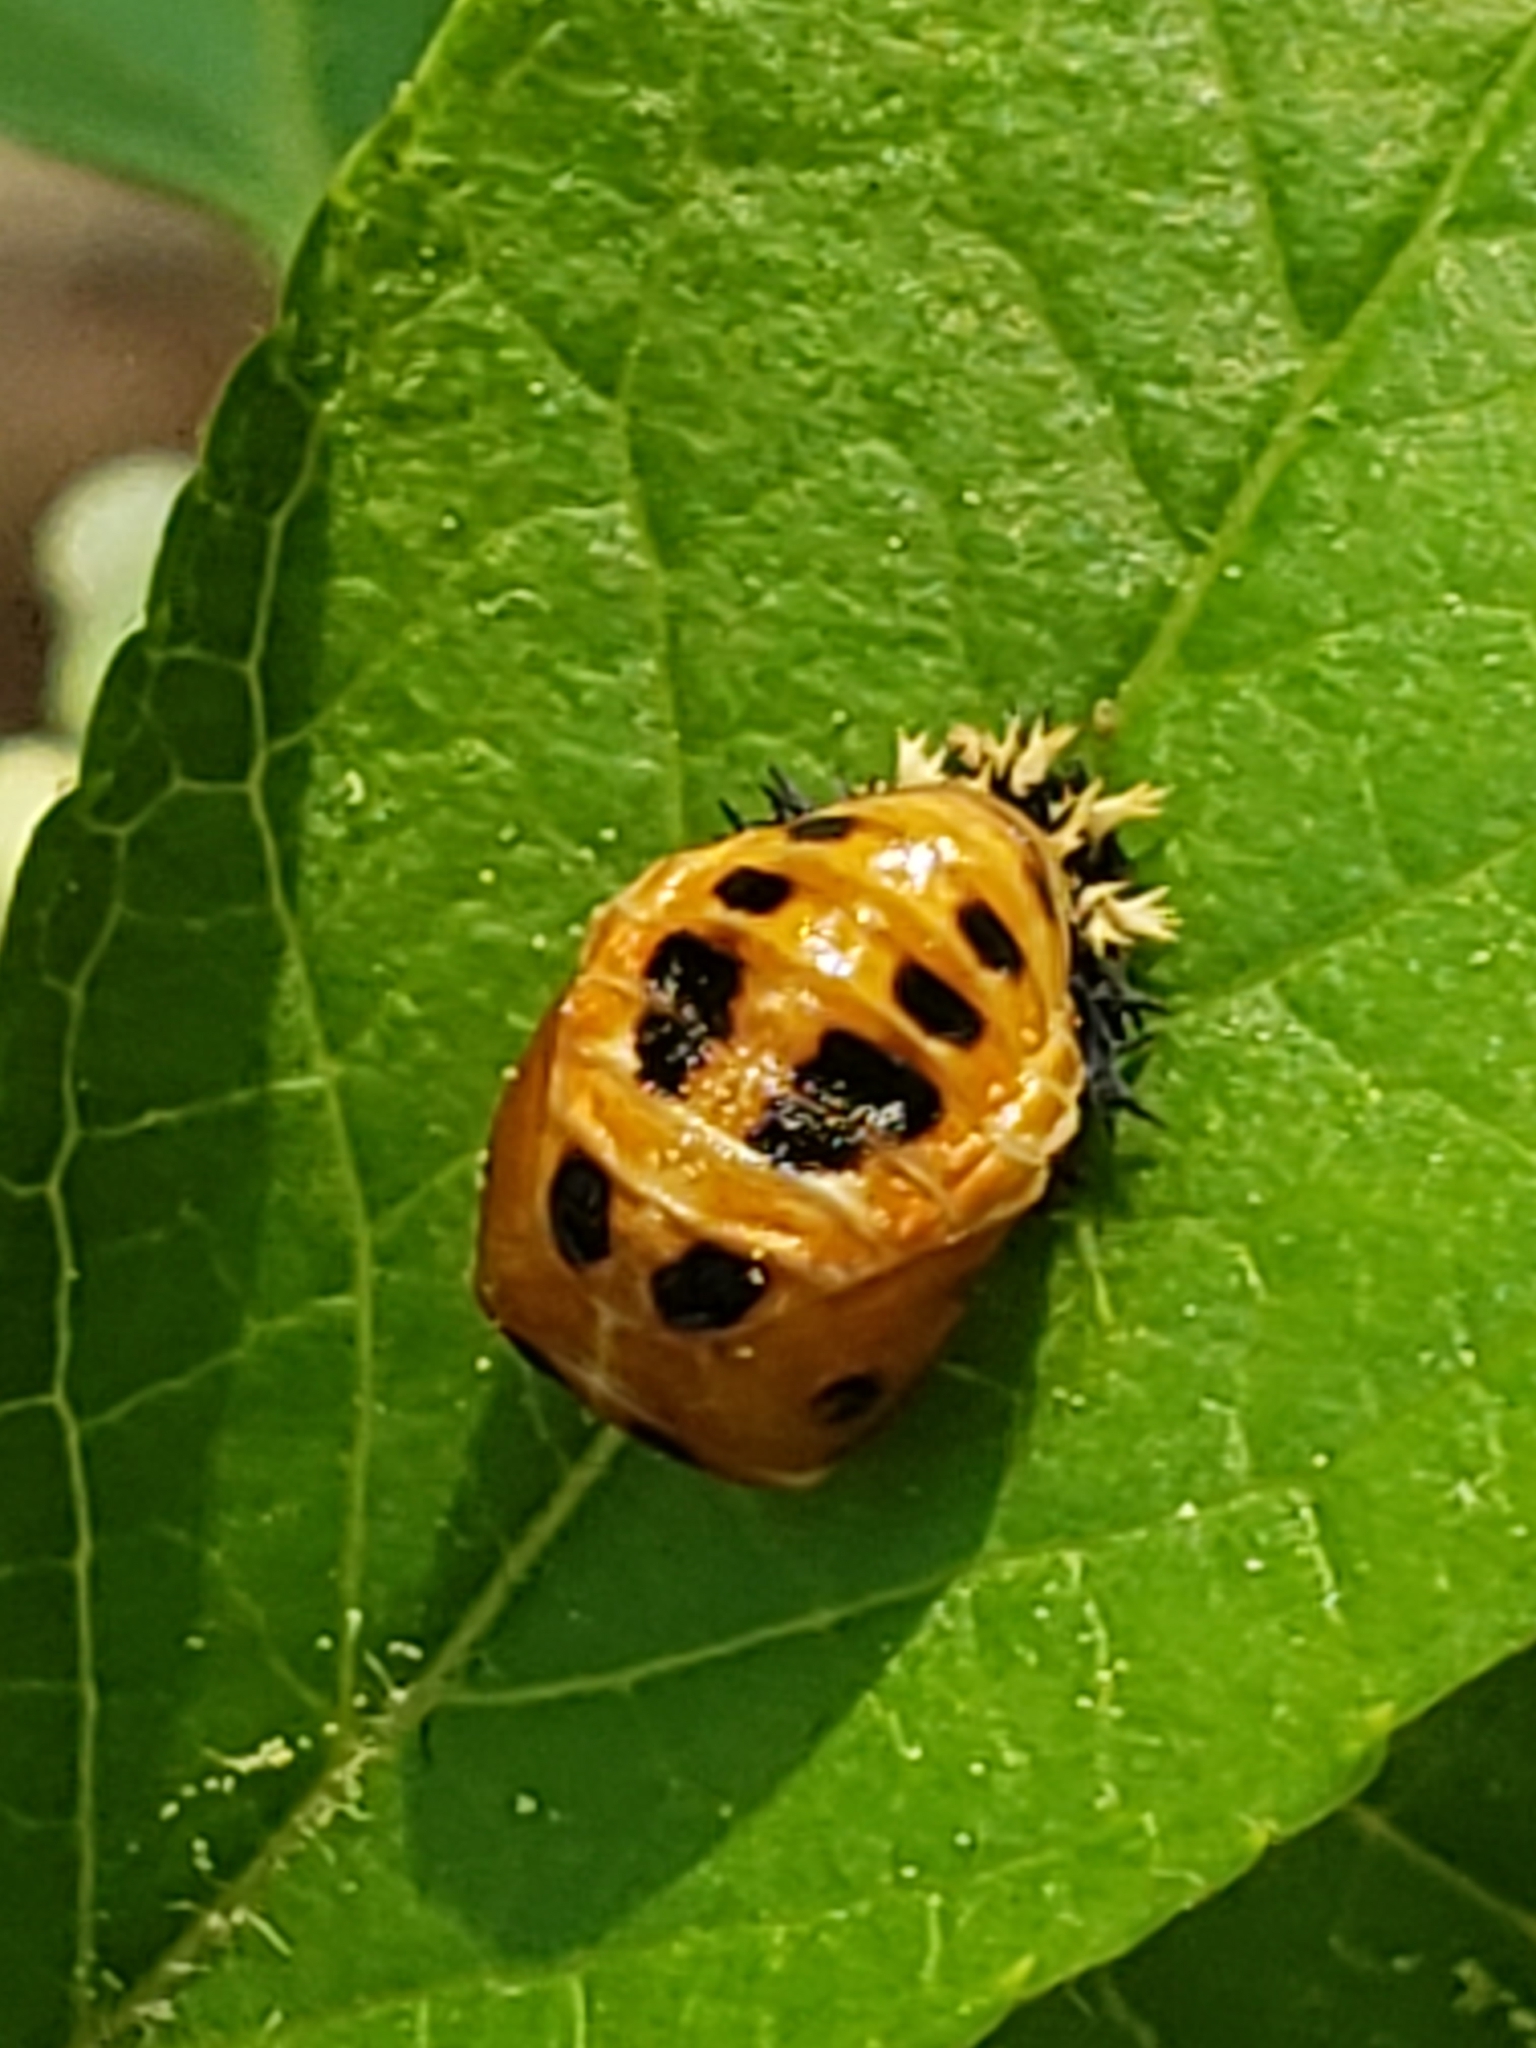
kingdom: Animalia
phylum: Arthropoda
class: Insecta
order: Coleoptera
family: Coccinellidae
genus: Harmonia
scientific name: Harmonia axyridis
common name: Harlequin ladybird
